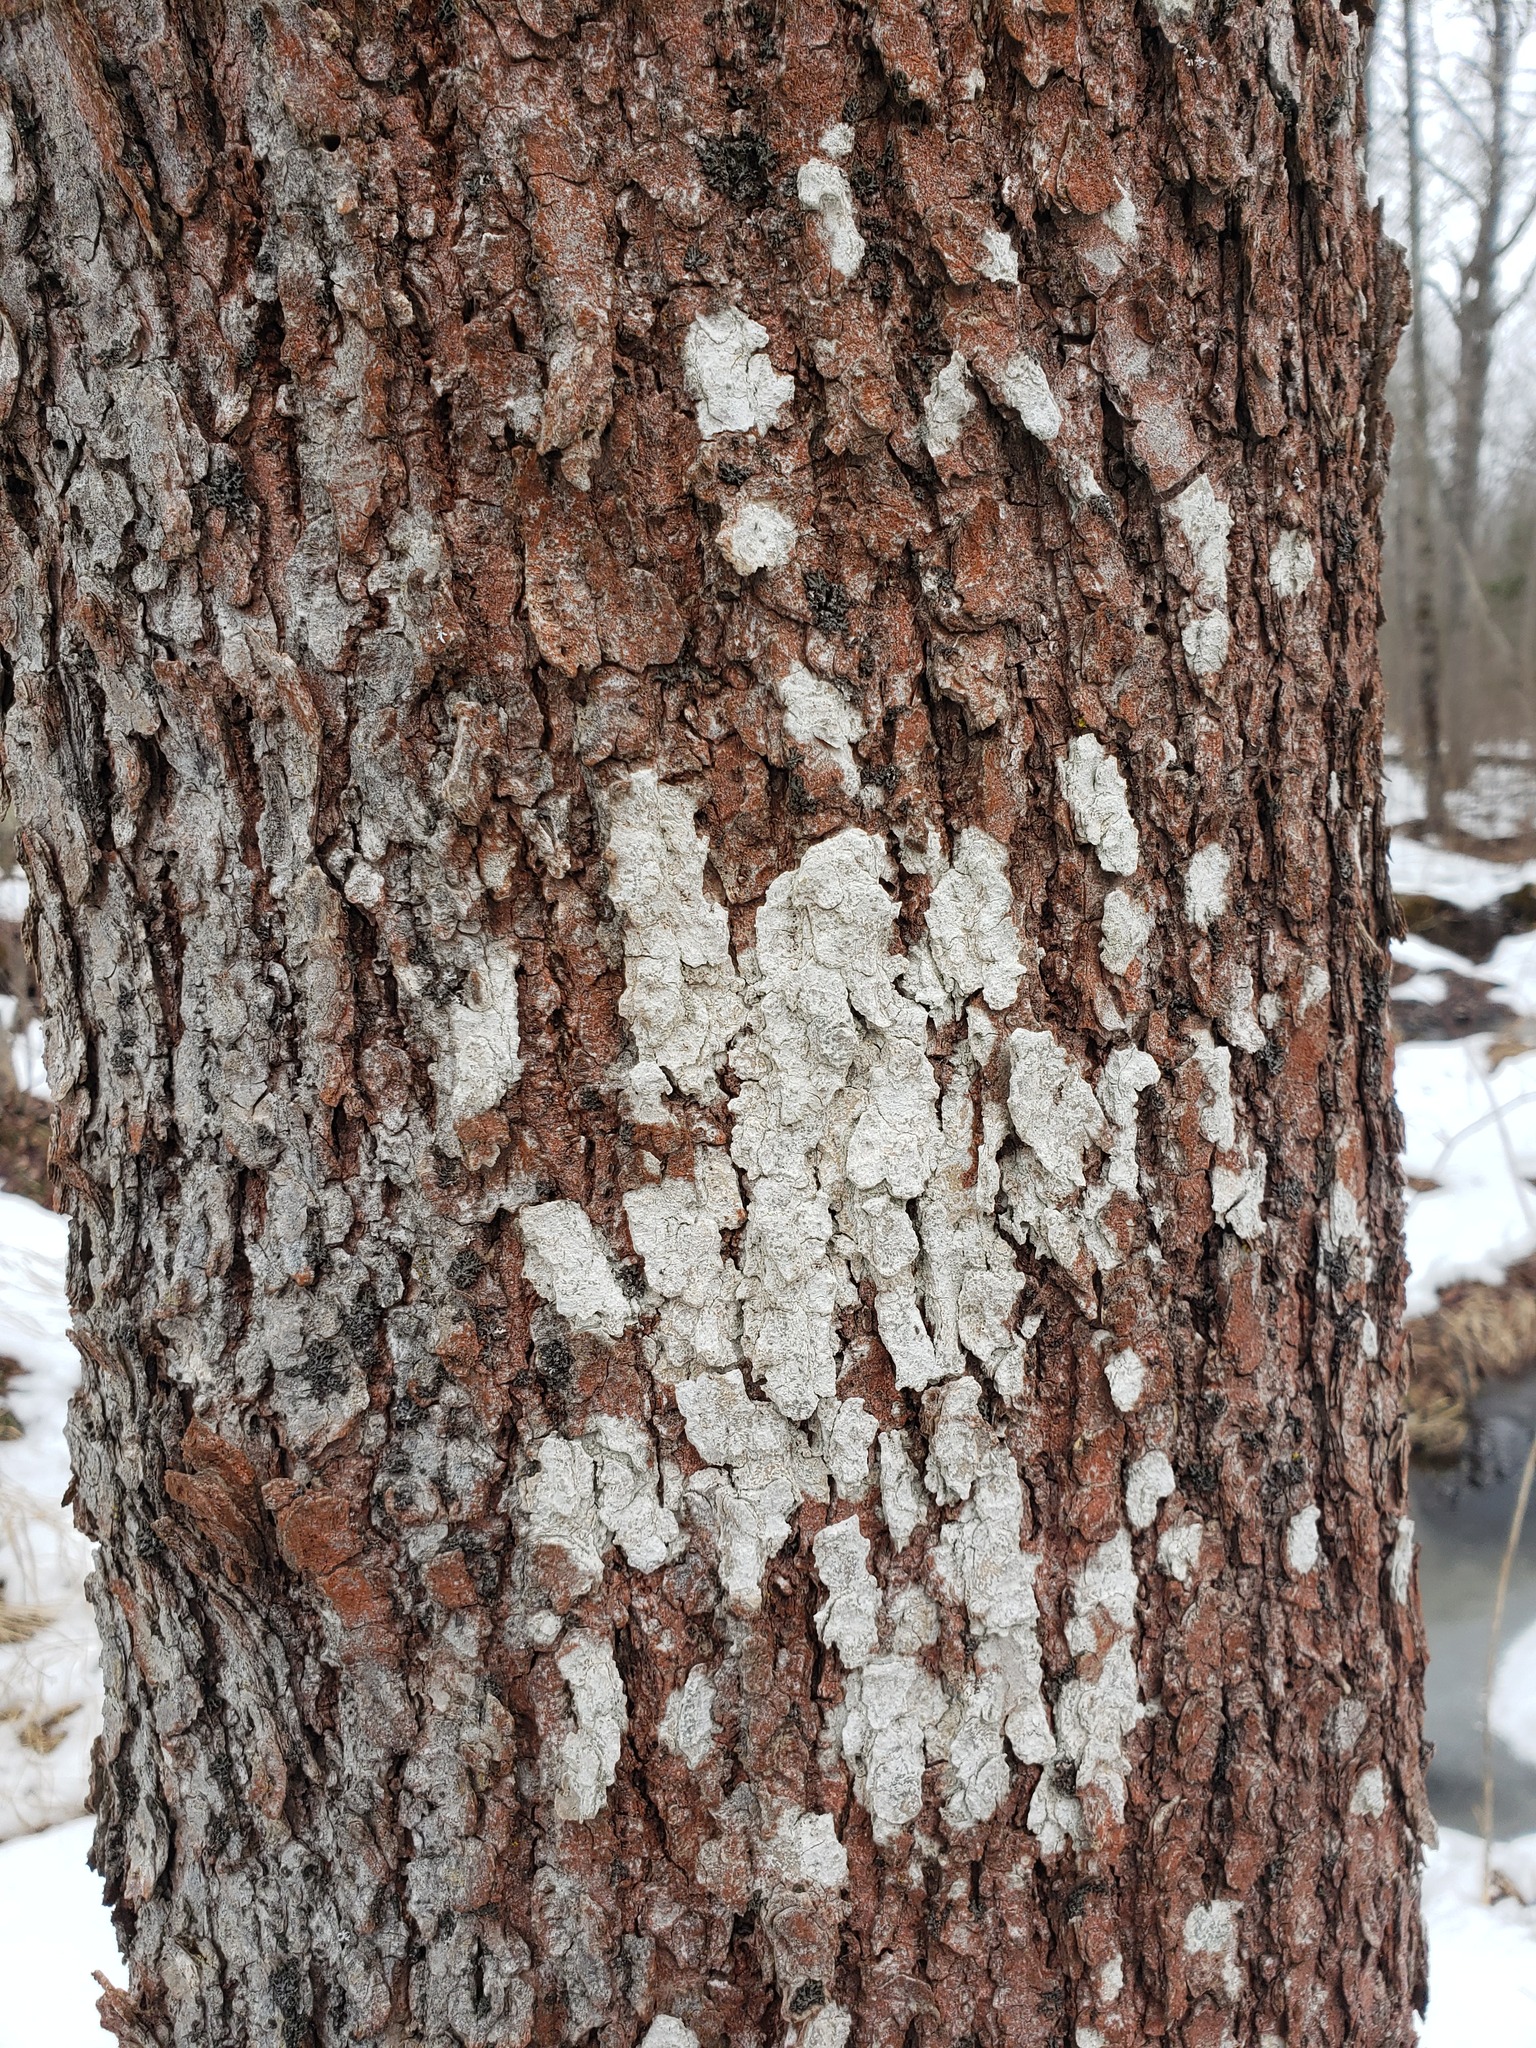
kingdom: Fungi
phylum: Ascomycota
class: Lecanoromycetes
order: Ostropales
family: Phlyctidaceae
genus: Phlyctis
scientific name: Phlyctis argena
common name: Whitewash lichen
